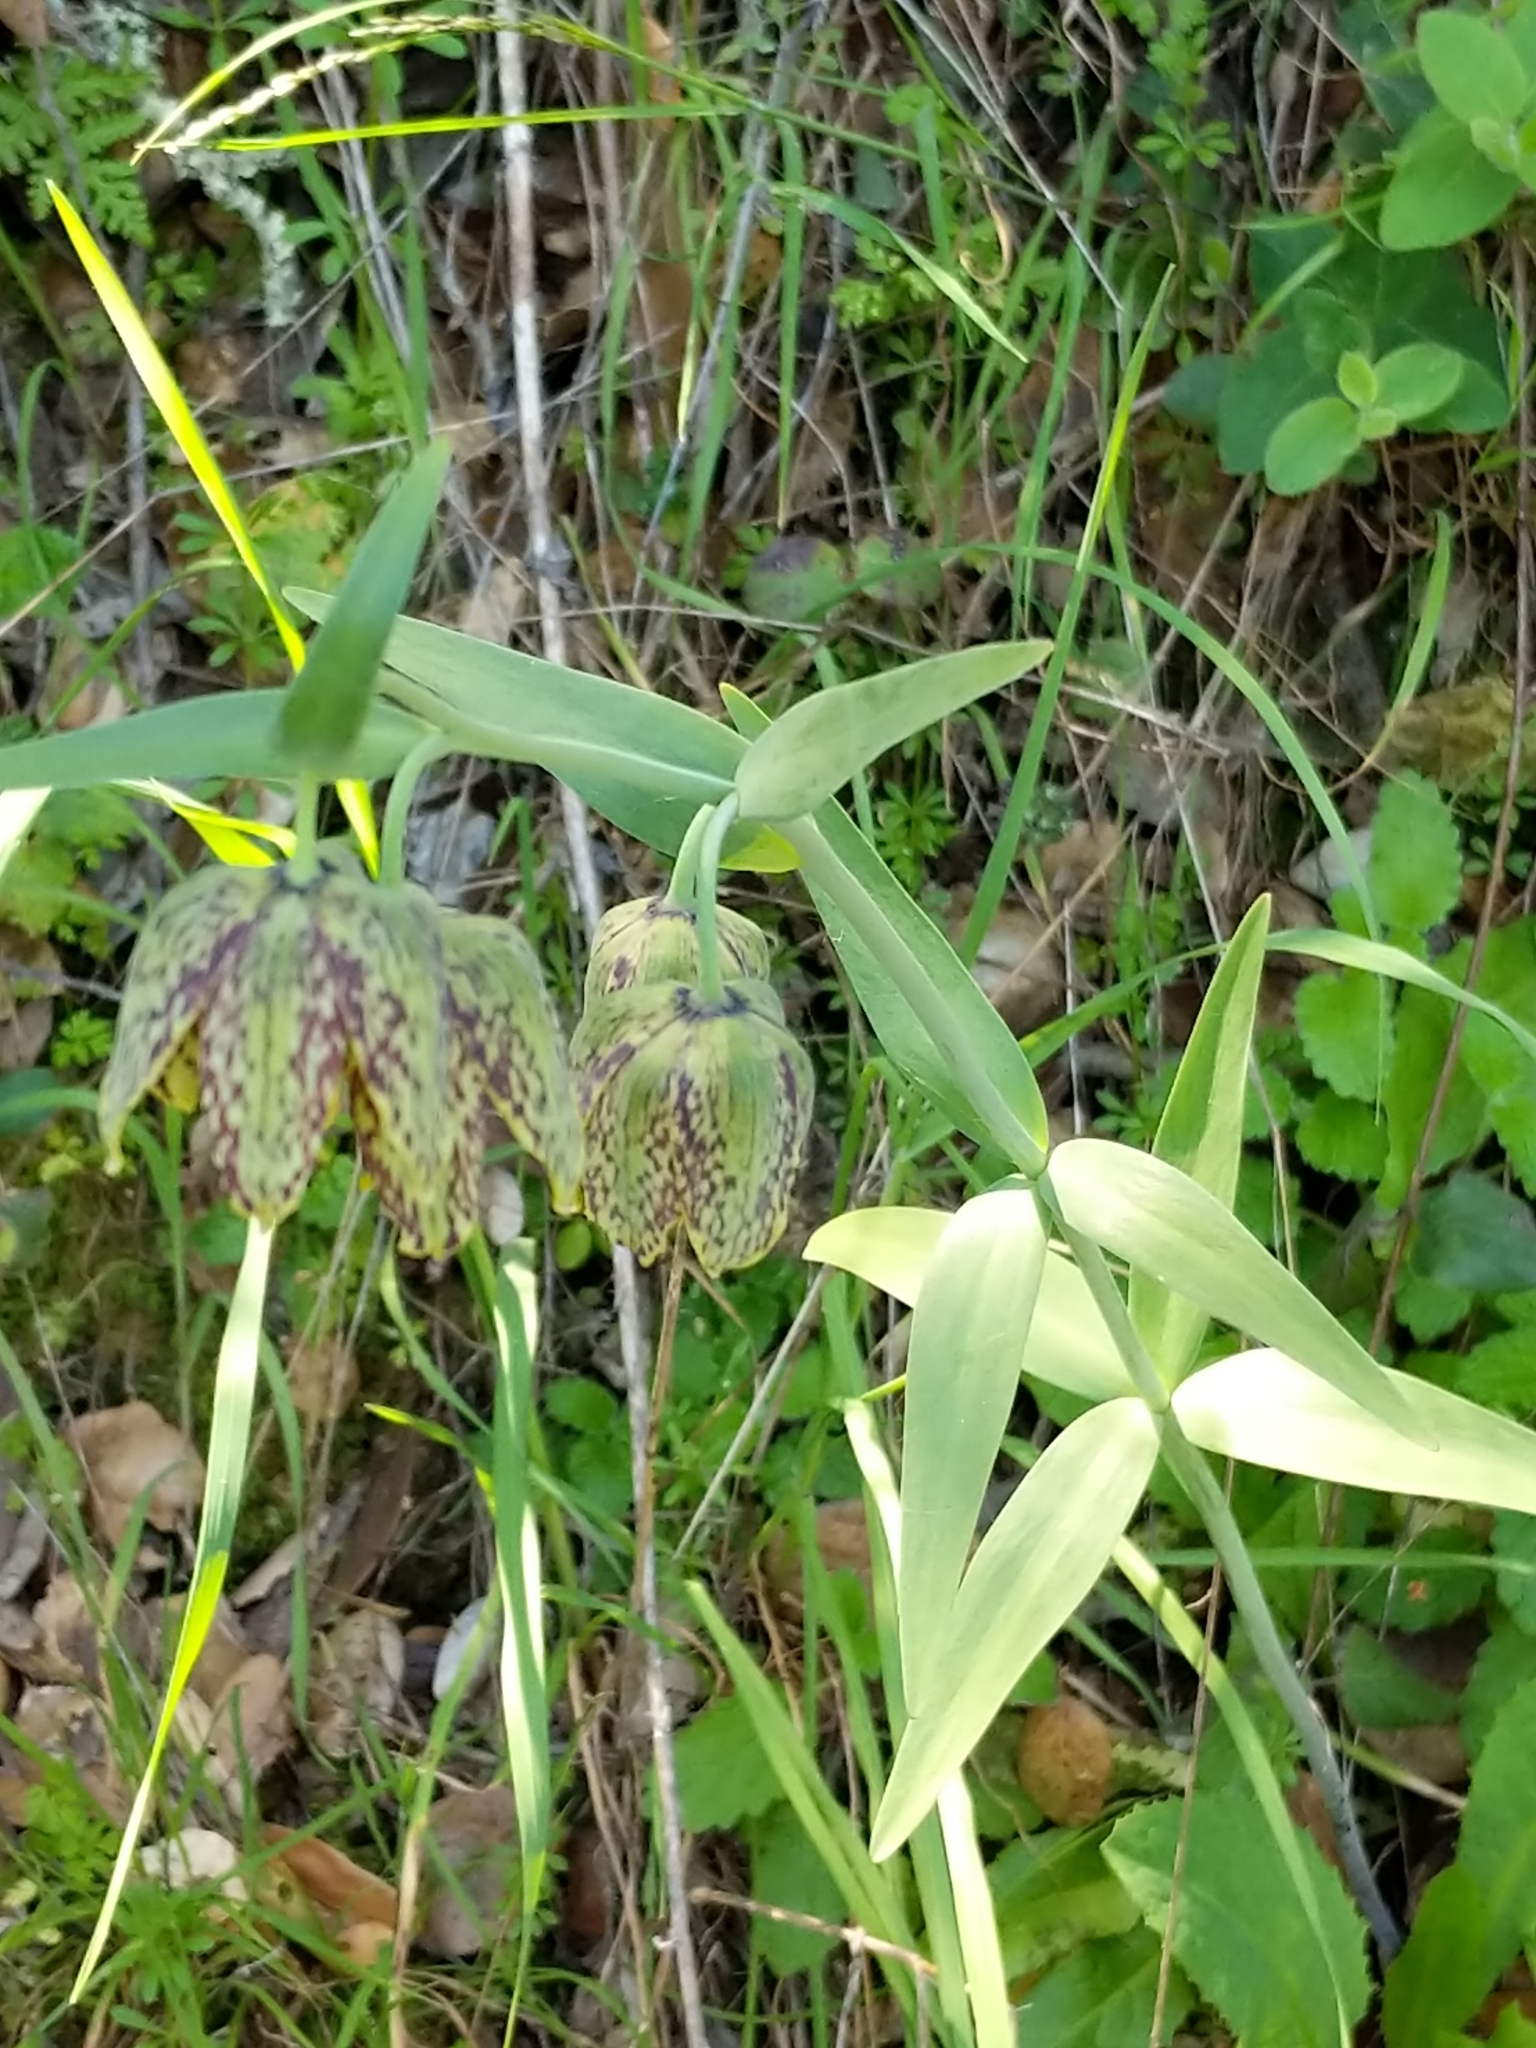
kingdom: Plantae
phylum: Tracheophyta
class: Liliopsida
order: Liliales
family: Liliaceae
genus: Fritillaria
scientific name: Fritillaria affinis
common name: Ojai fritillary
